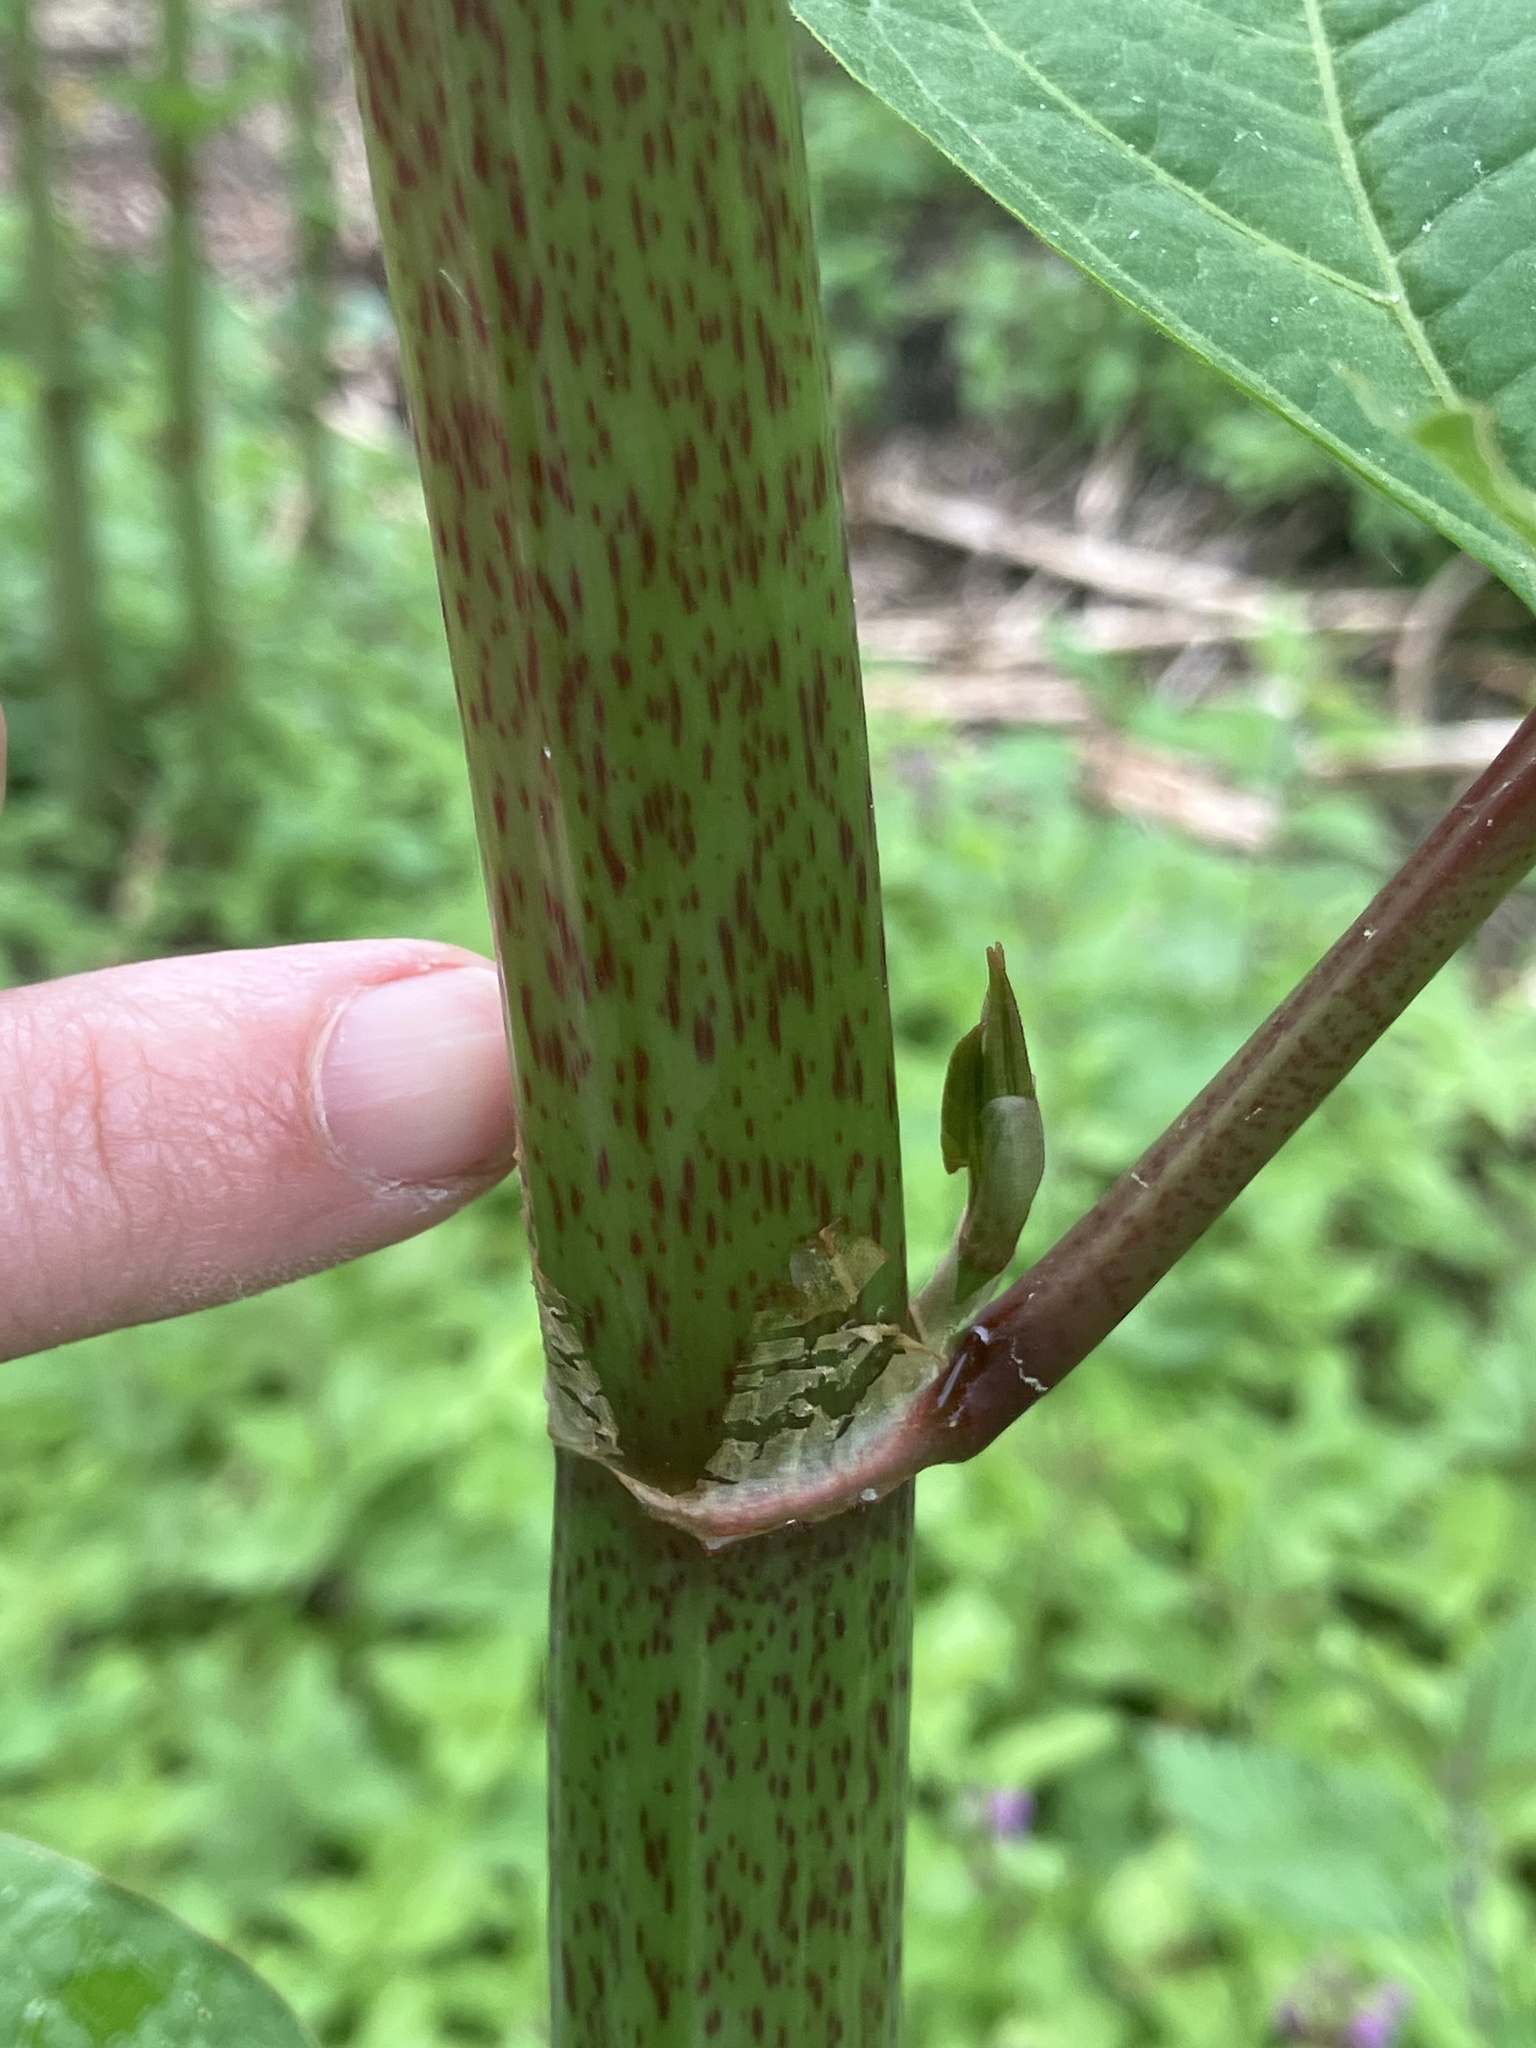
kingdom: Plantae
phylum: Tracheophyta
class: Magnoliopsida
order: Caryophyllales
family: Polygonaceae
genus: Reynoutria
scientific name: Reynoutria bohemica
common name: Bohemian knotweed
